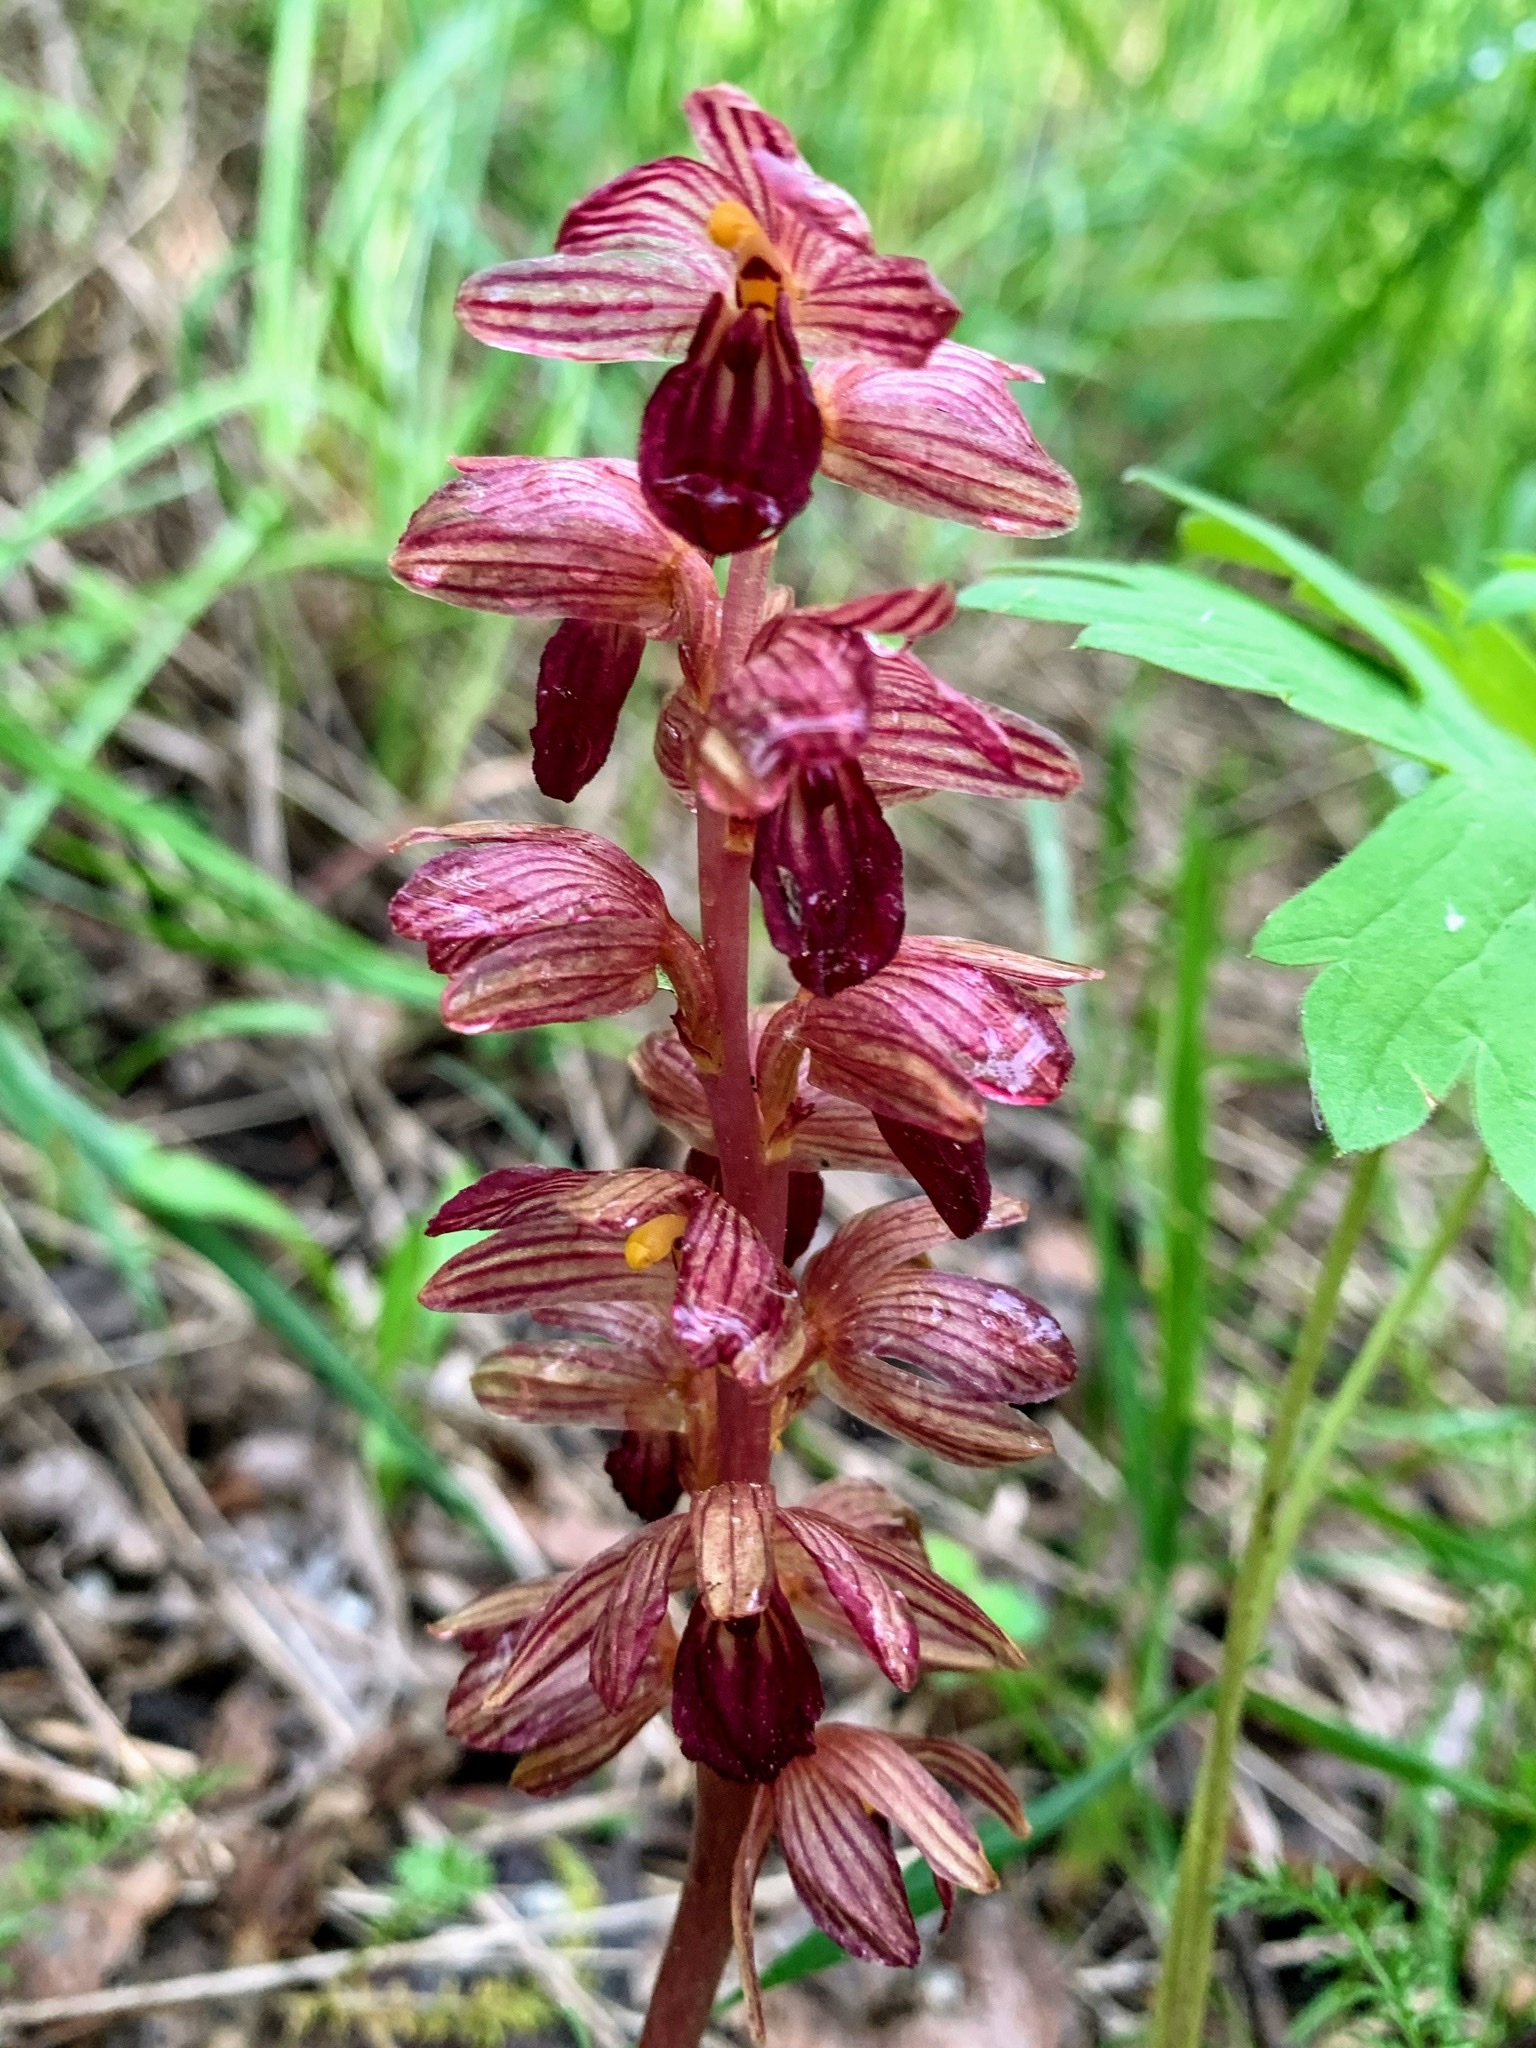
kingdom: Plantae
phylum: Tracheophyta
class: Liliopsida
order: Asparagales
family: Orchidaceae
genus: Corallorhiza
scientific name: Corallorhiza striata
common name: Hooded coralroot
